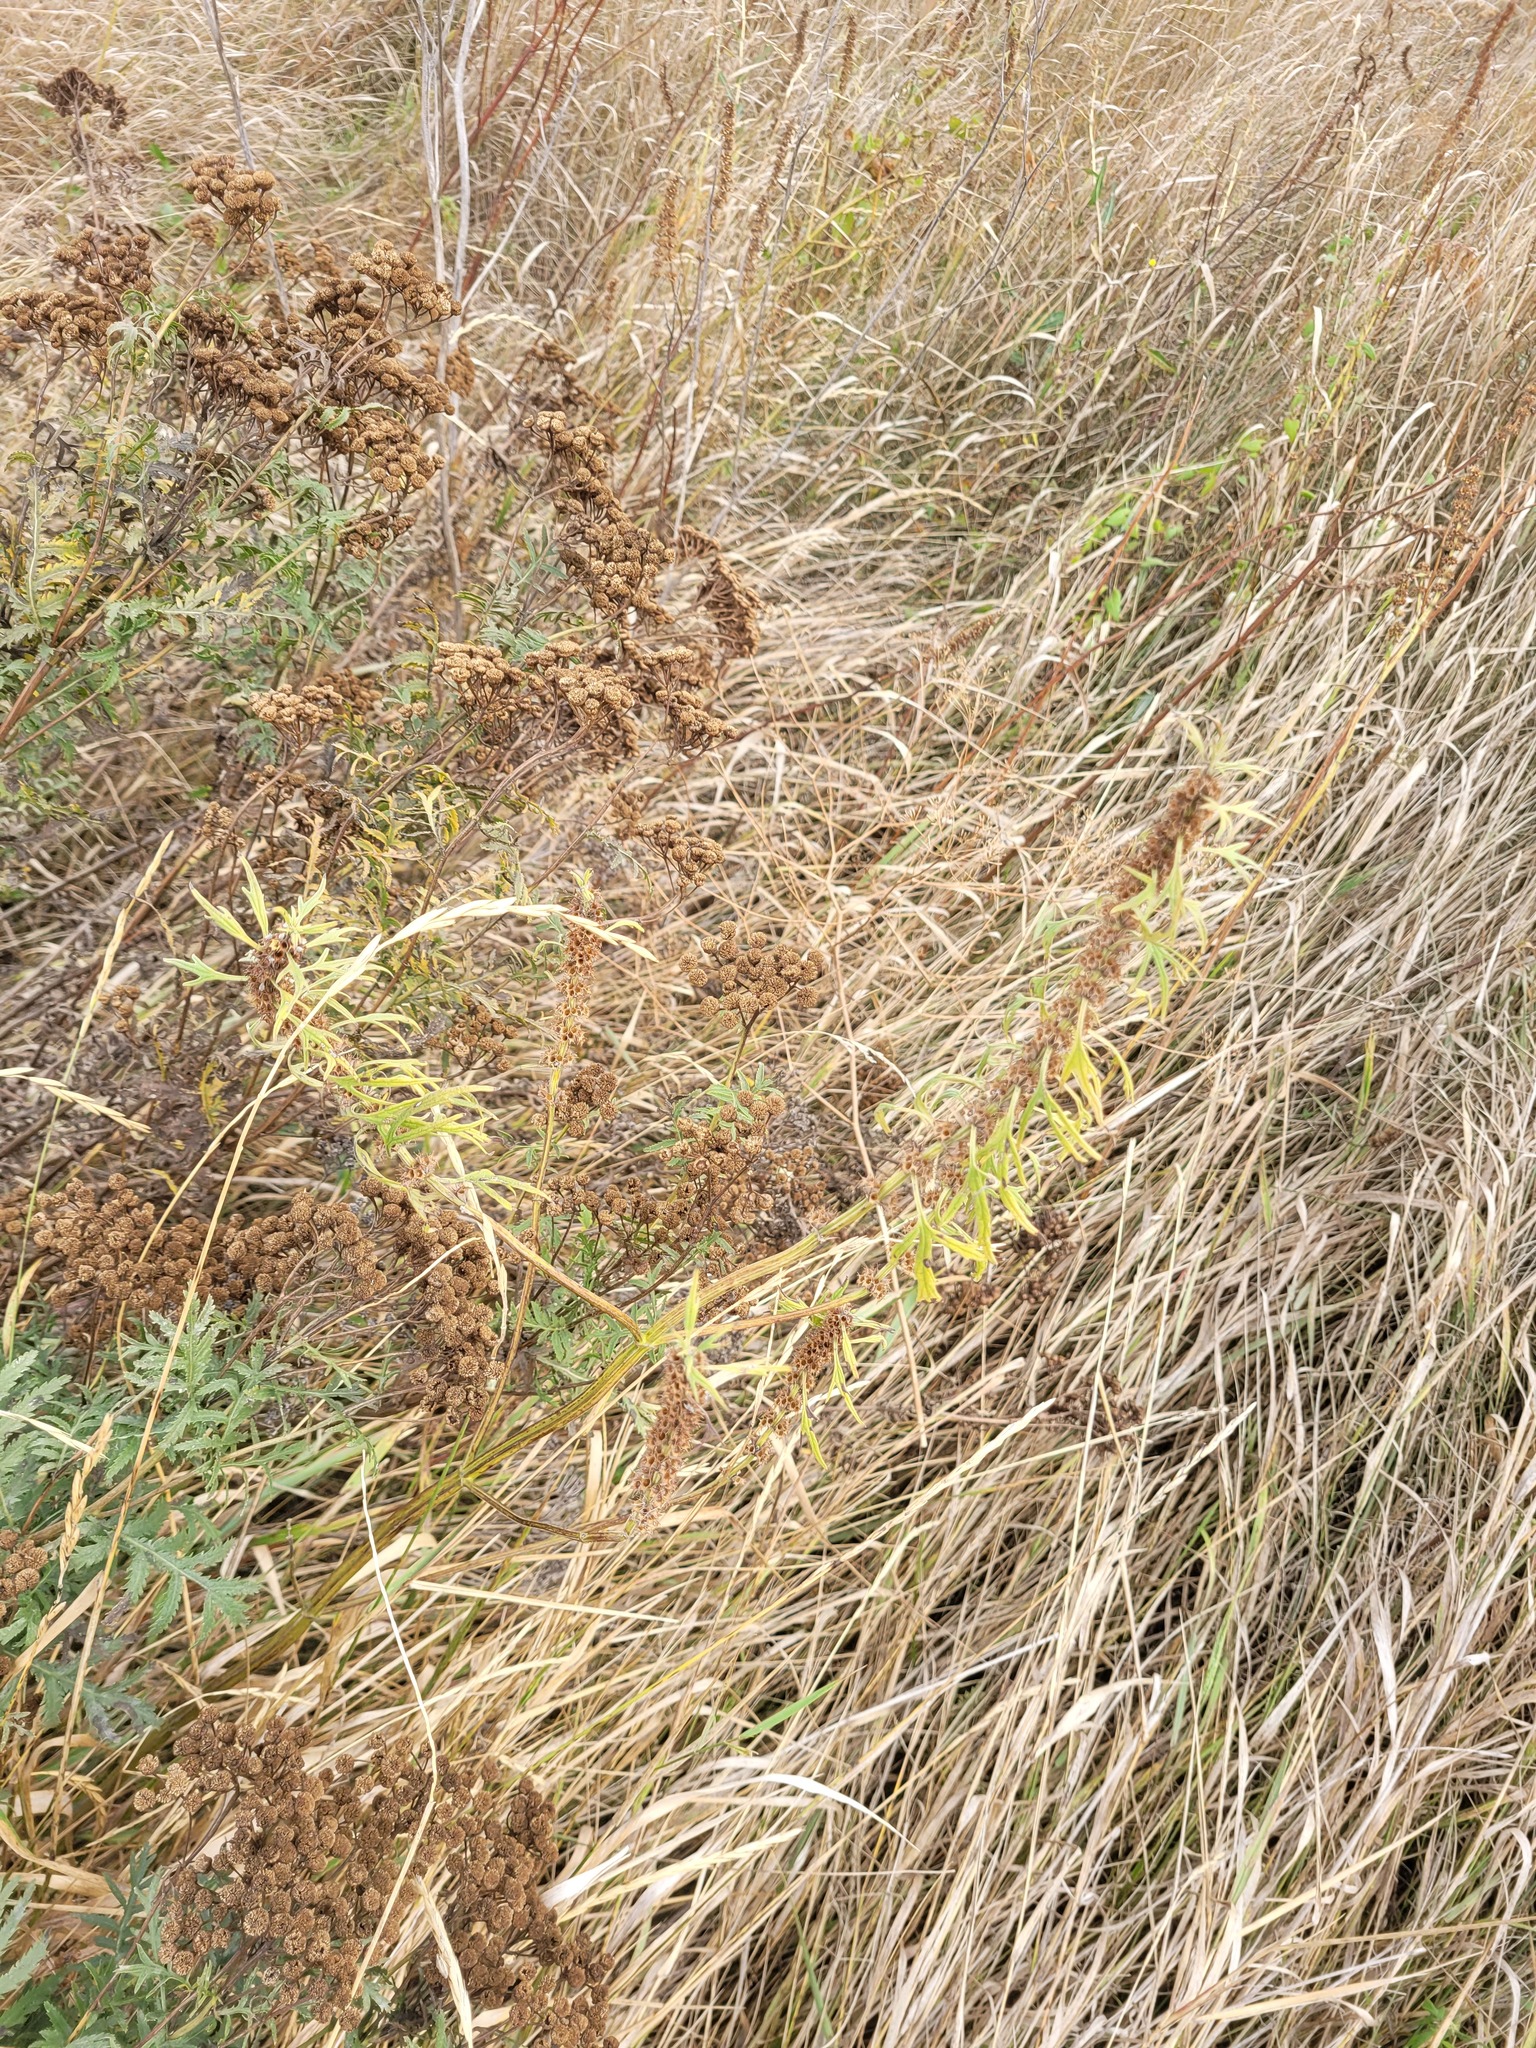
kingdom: Plantae
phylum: Tracheophyta
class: Magnoliopsida
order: Lamiales
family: Lamiaceae
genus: Leonurus
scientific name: Leonurus glaucescens
